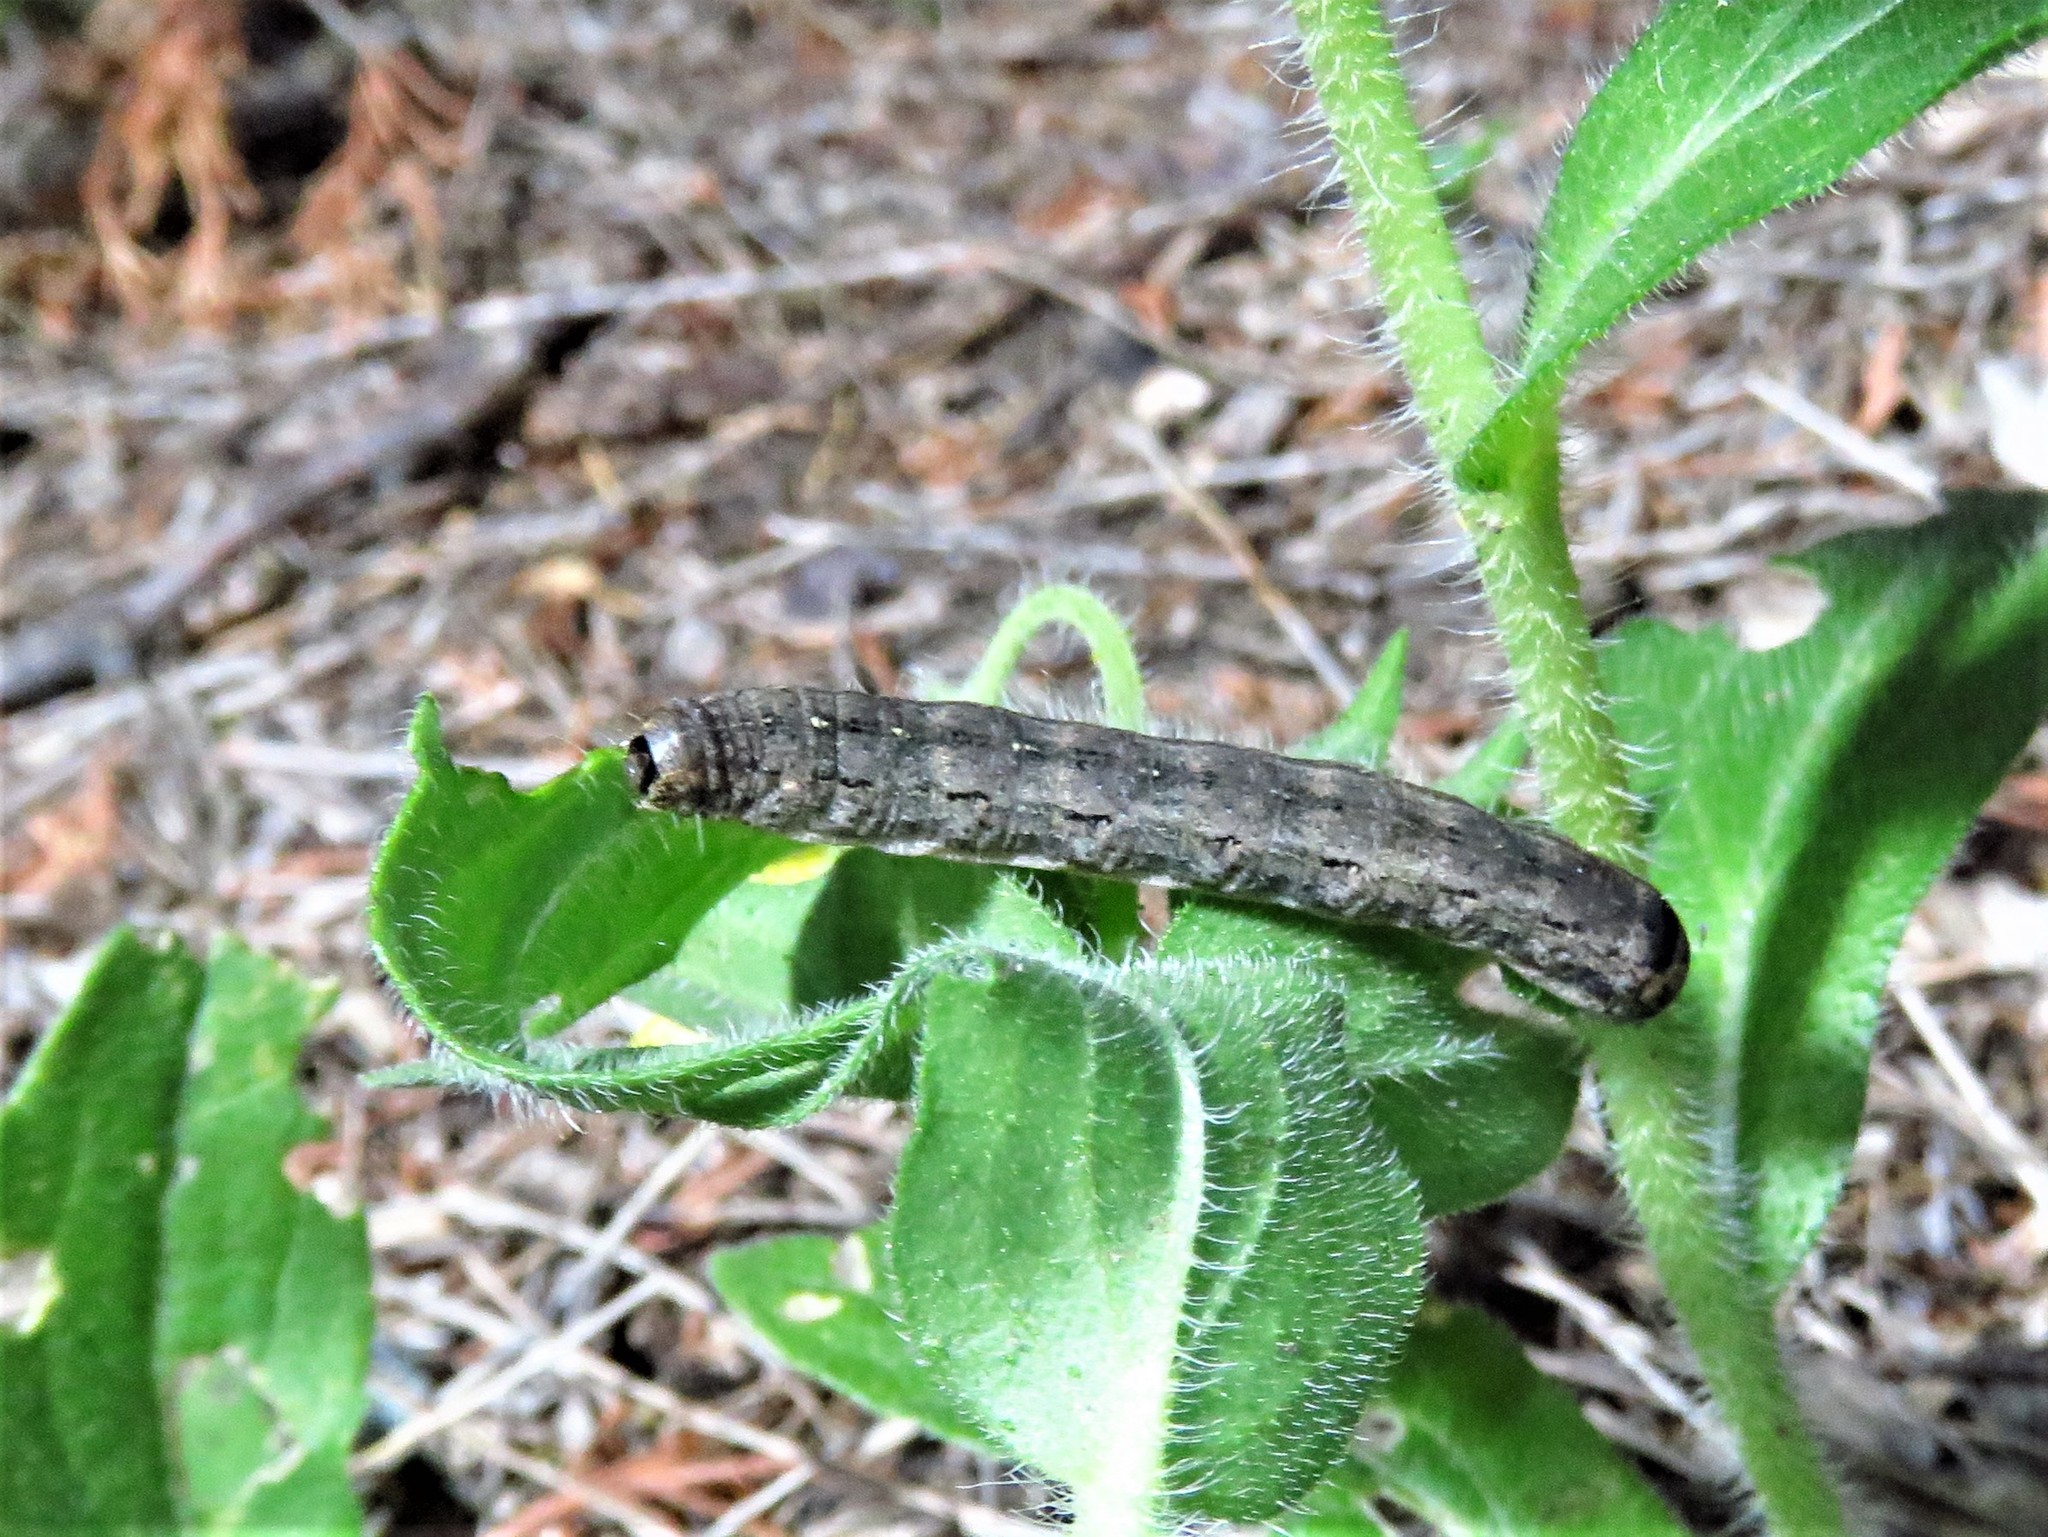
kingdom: Animalia
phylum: Arthropoda
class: Insecta
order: Lepidoptera
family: Noctuidae
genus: Peridroma
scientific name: Peridroma saucia
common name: Pearly underwing
